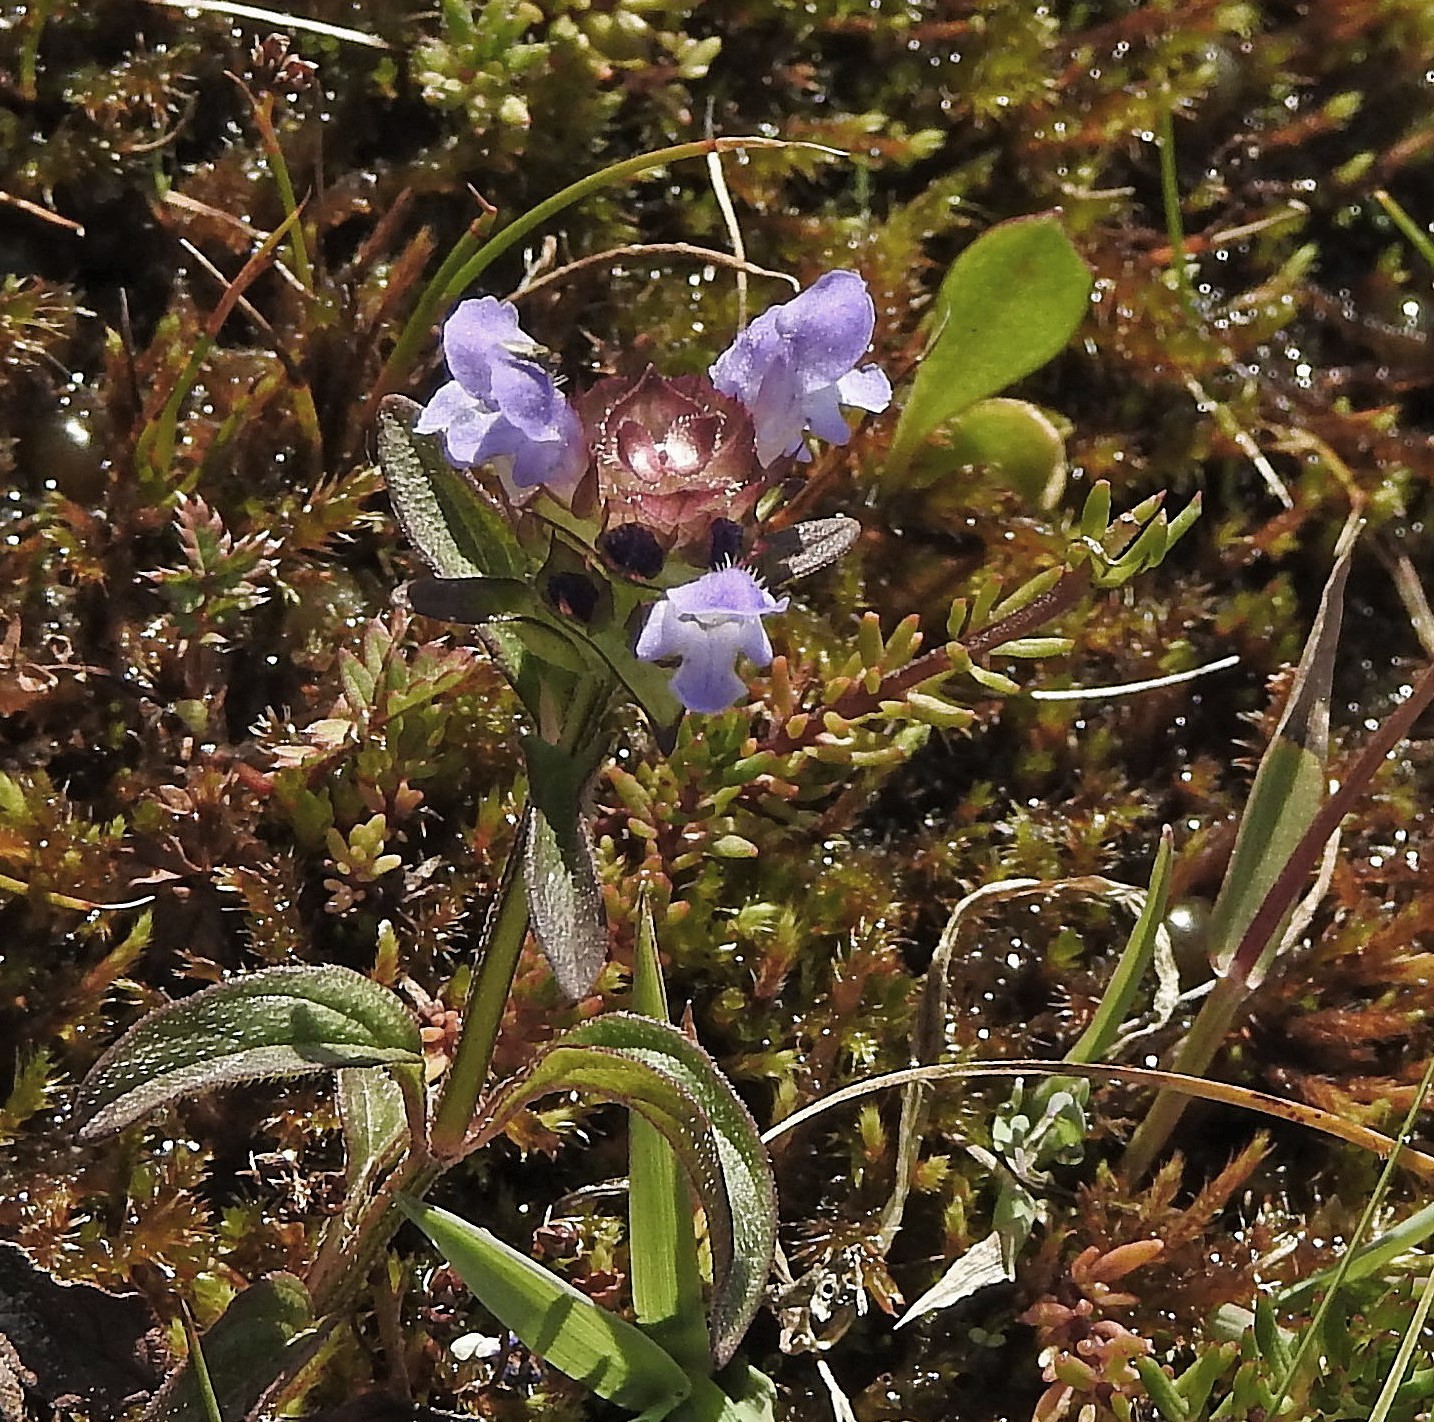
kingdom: Plantae
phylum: Tracheophyta
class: Magnoliopsida
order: Lamiales
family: Lamiaceae
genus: Prunella
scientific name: Prunella vulgaris
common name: Heal-all
